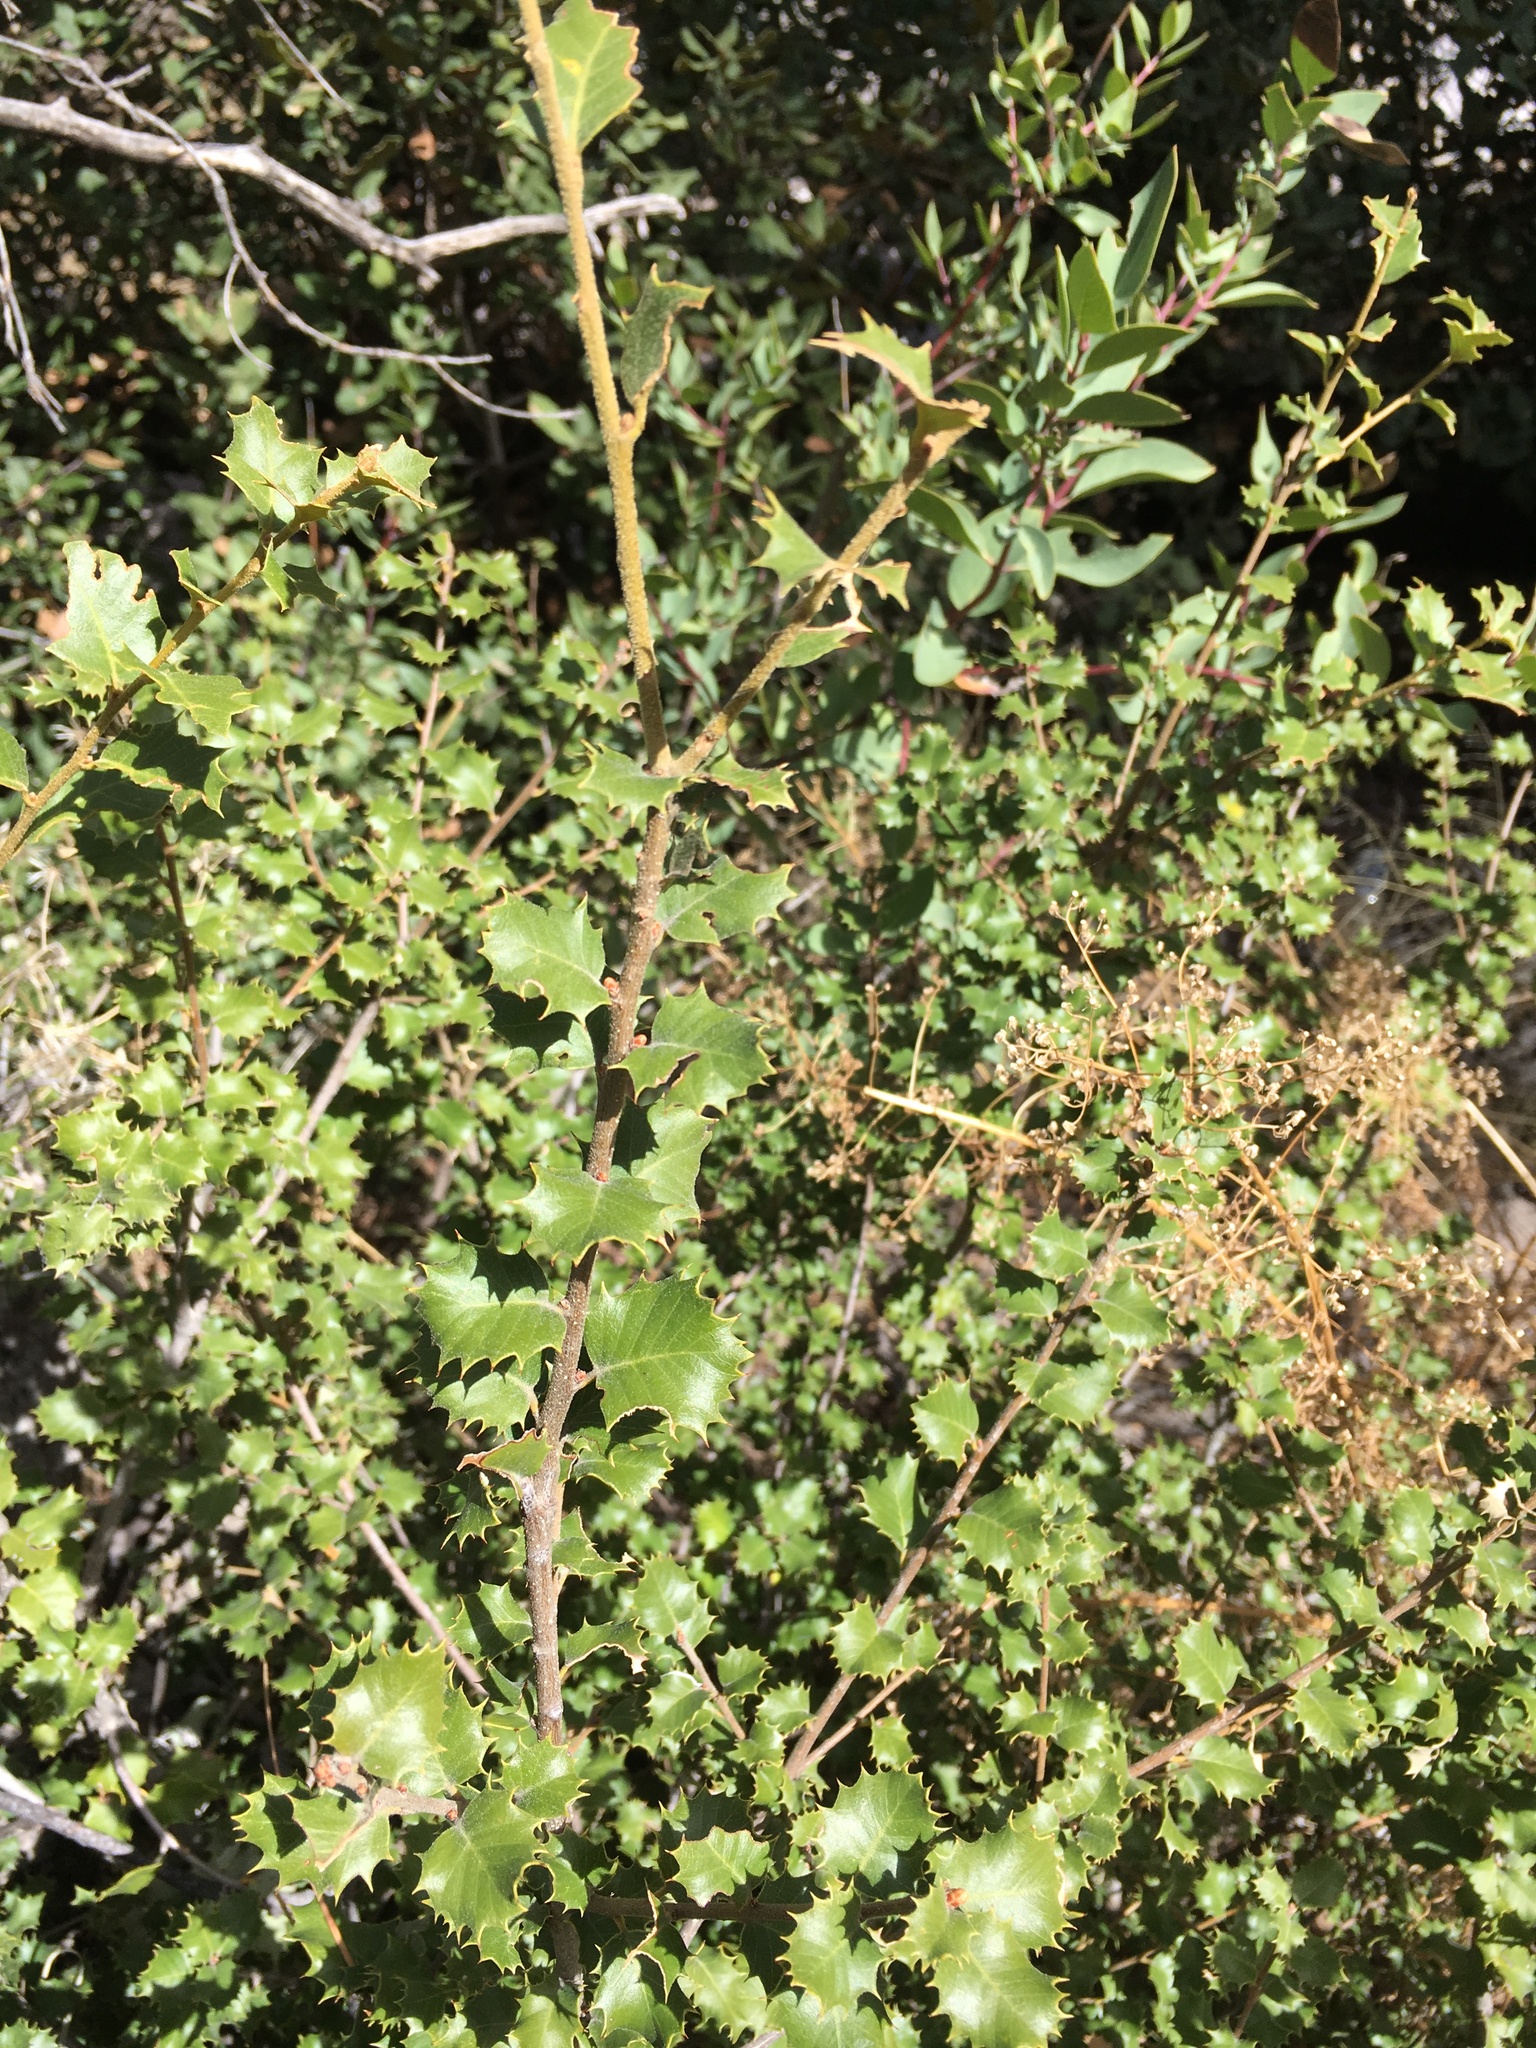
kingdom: Plantae
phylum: Tracheophyta
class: Magnoliopsida
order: Fagales
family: Fagaceae
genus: Quercus
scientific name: Quercus palmeri
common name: Dunn oak
